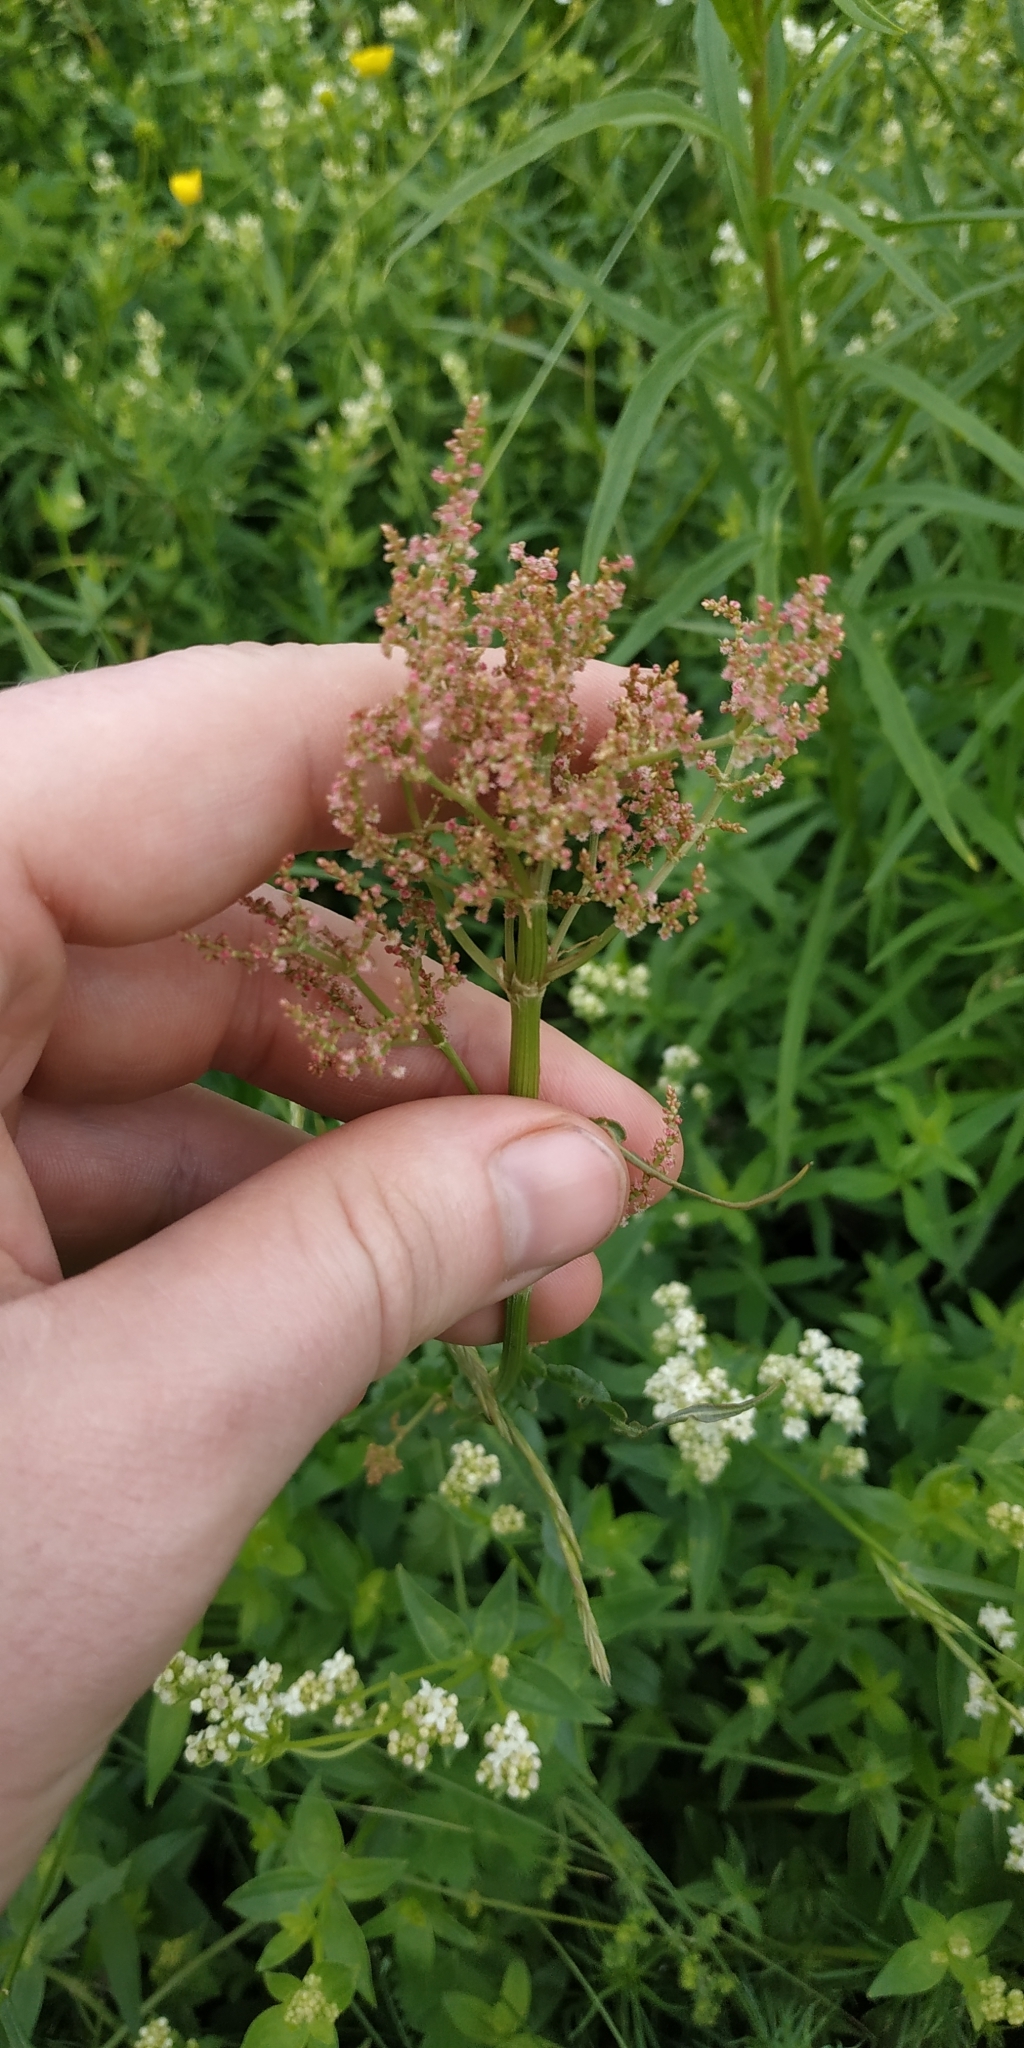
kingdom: Plantae
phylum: Tracheophyta
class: Magnoliopsida
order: Caryophyllales
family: Polygonaceae
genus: Rumex
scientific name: Rumex thyrsiflorus
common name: Garden sorrel
